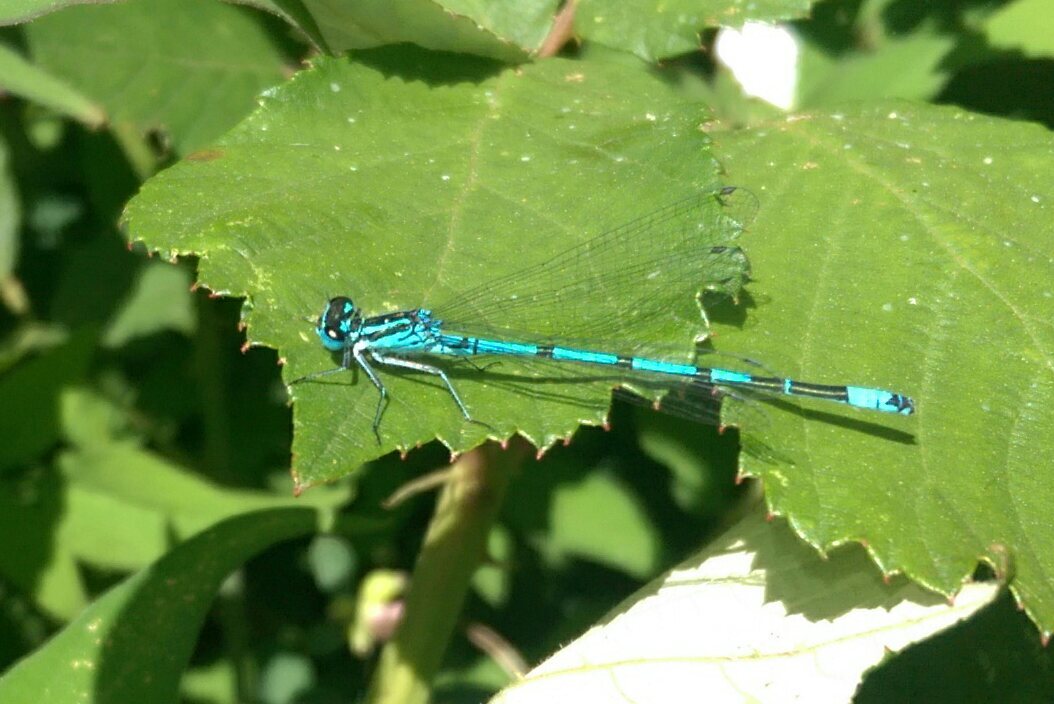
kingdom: Animalia
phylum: Arthropoda
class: Insecta
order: Odonata
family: Coenagrionidae
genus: Coenagrion
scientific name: Coenagrion puella
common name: Azure damselfly
